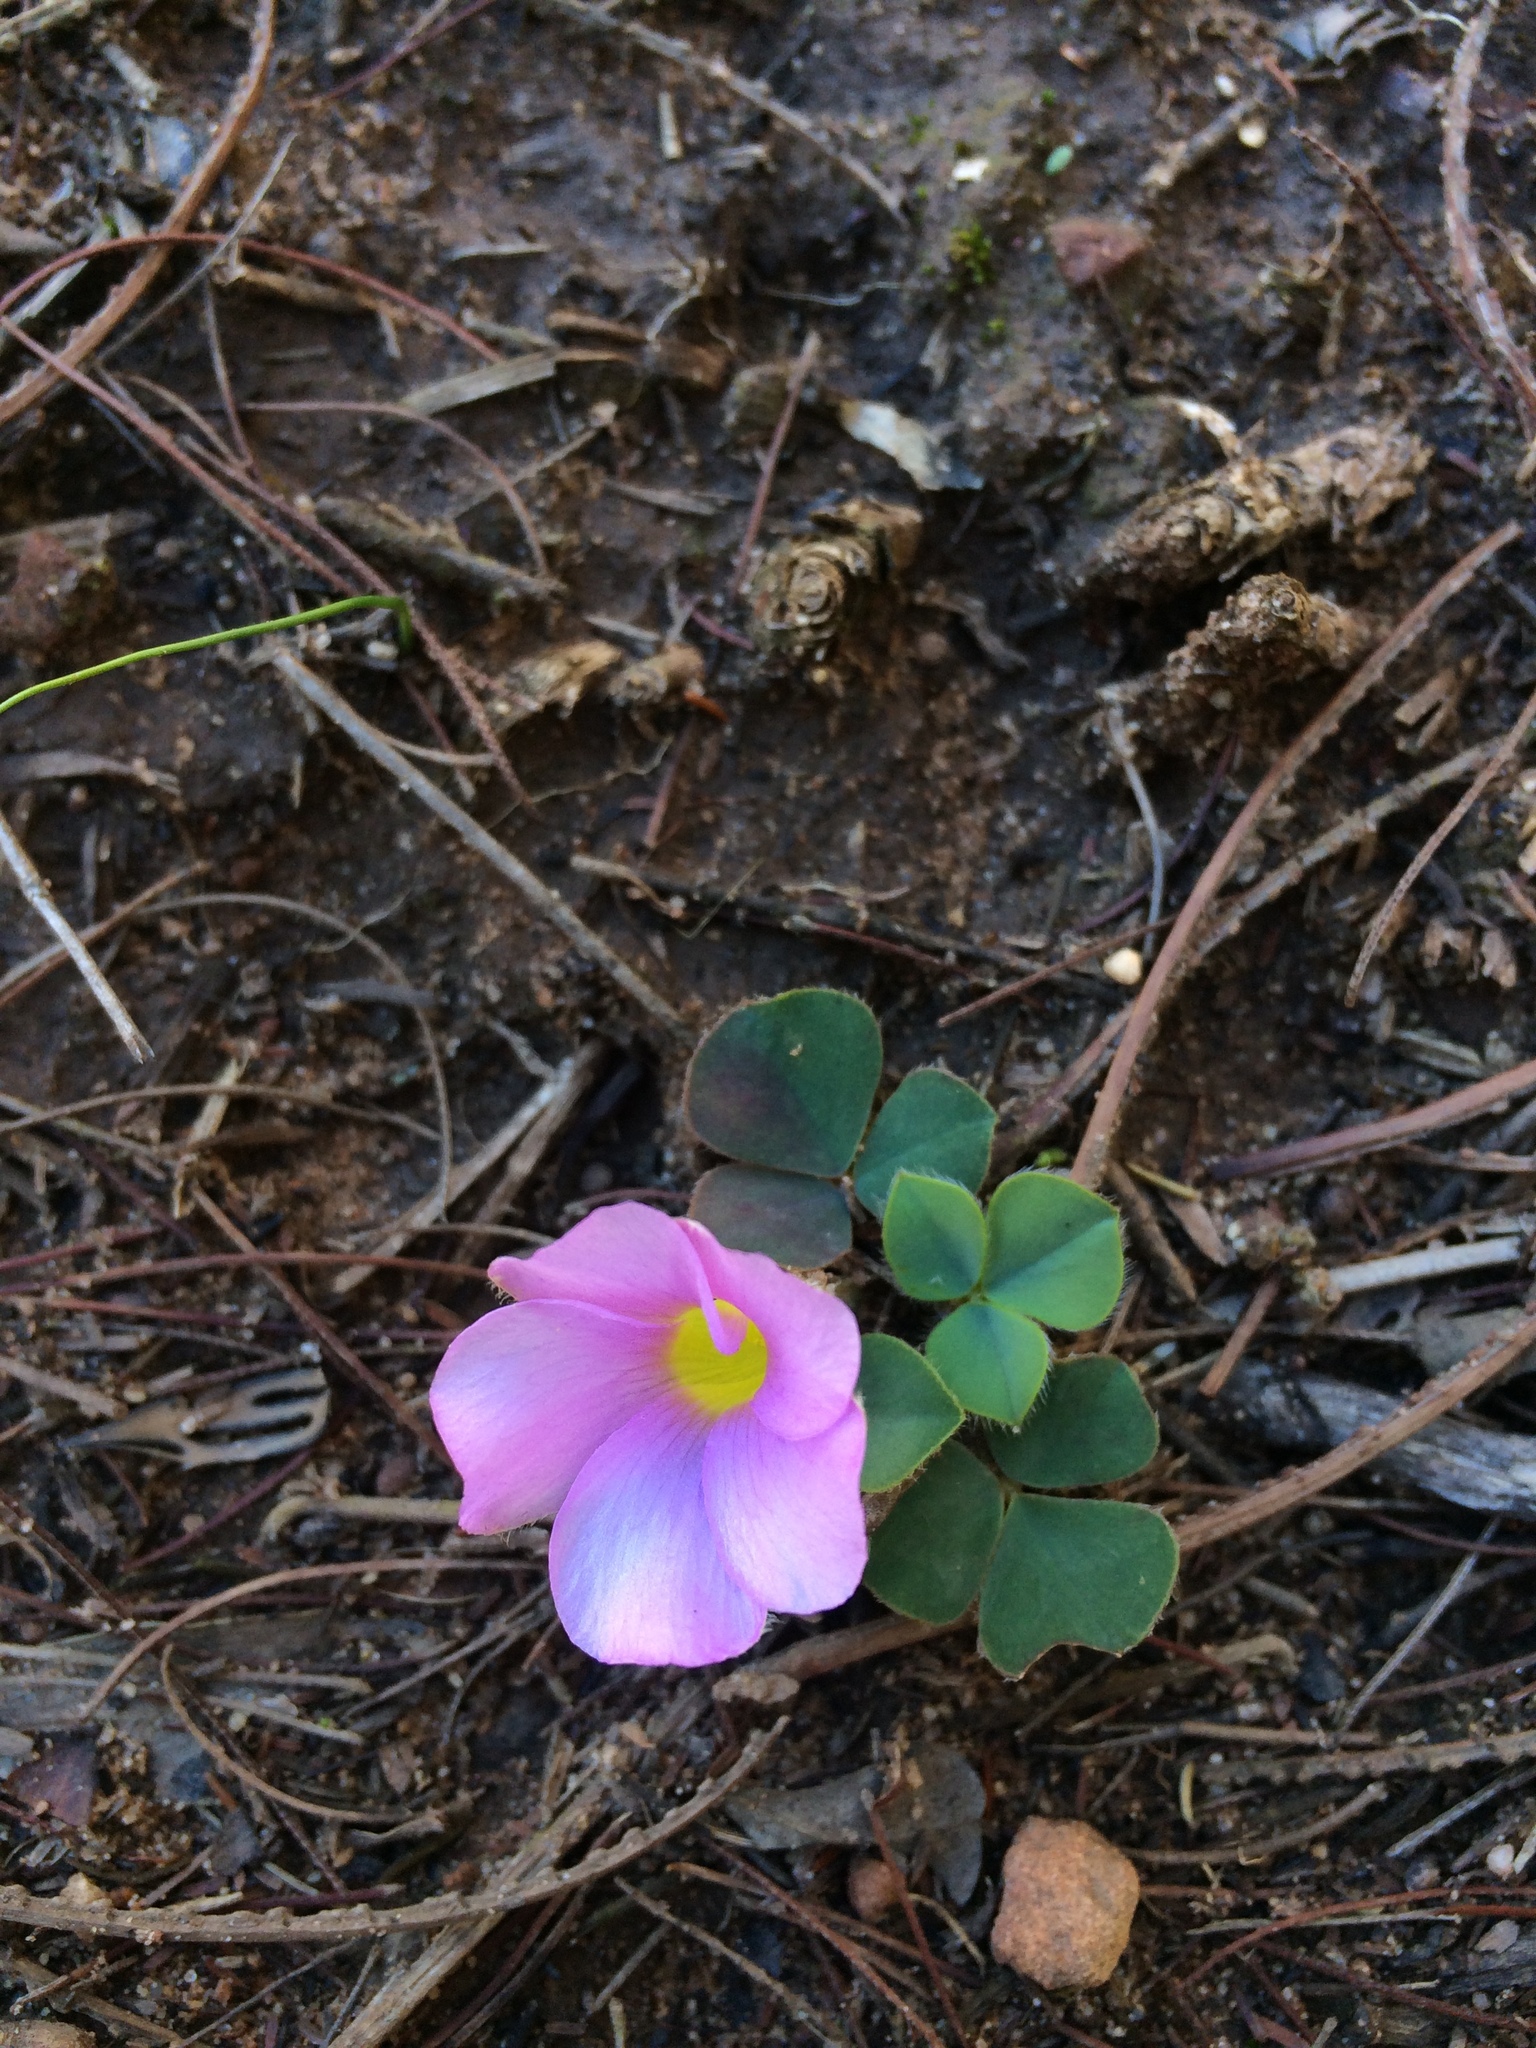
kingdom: Plantae
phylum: Tracheophyta
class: Magnoliopsida
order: Oxalidales
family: Oxalidaceae
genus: Oxalis
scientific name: Oxalis purpurea
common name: Purple woodsorrel
